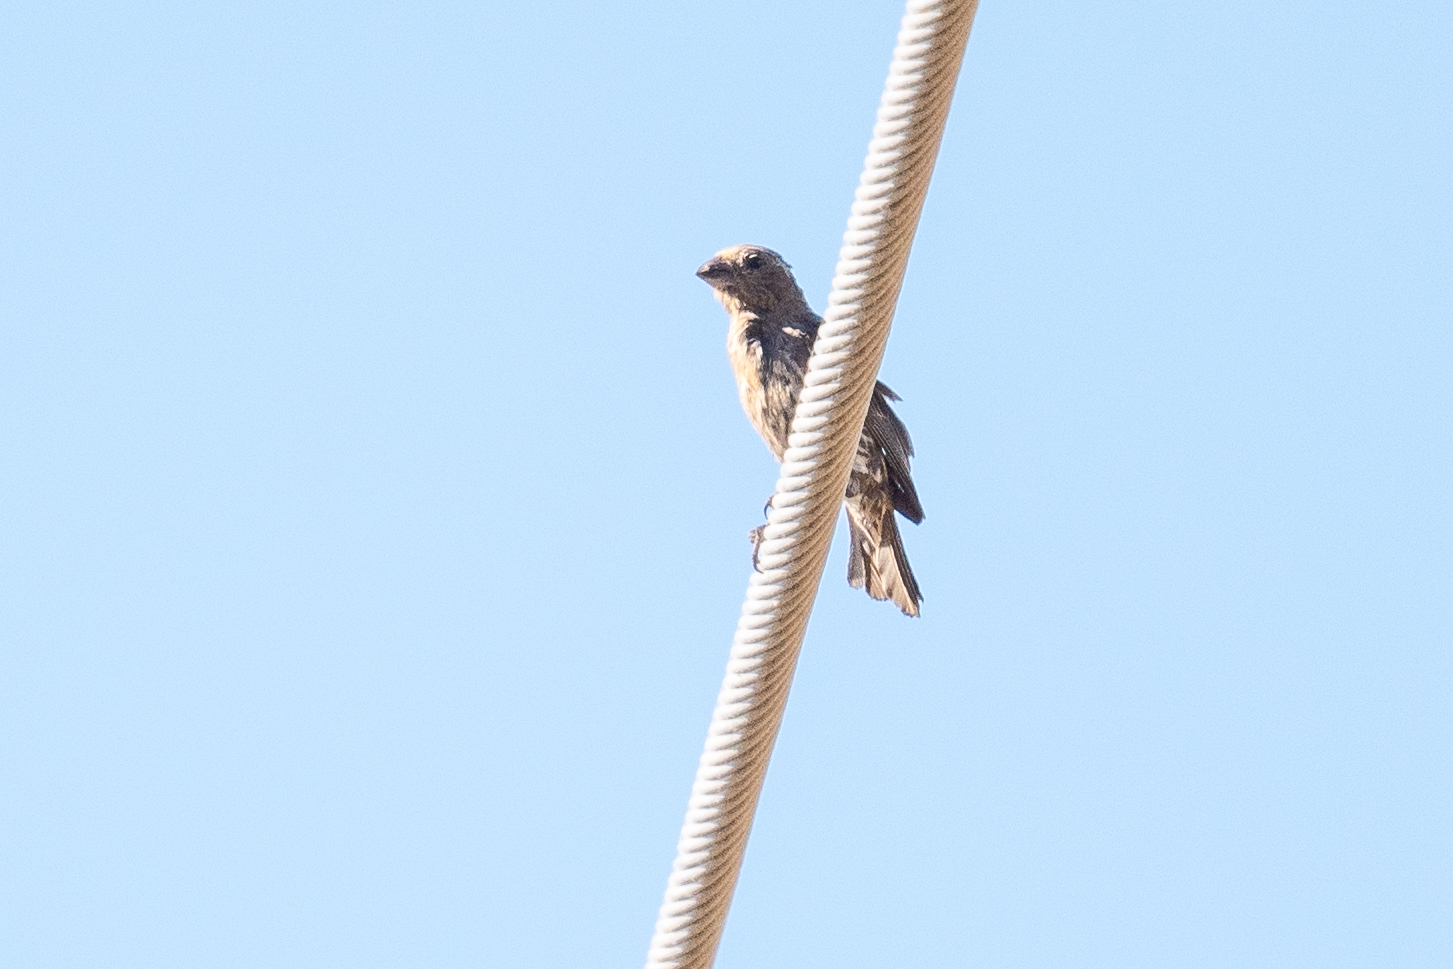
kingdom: Animalia
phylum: Chordata
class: Aves
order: Passeriformes
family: Fringillidae
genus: Haemorhous
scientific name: Haemorhous mexicanus
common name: House finch
